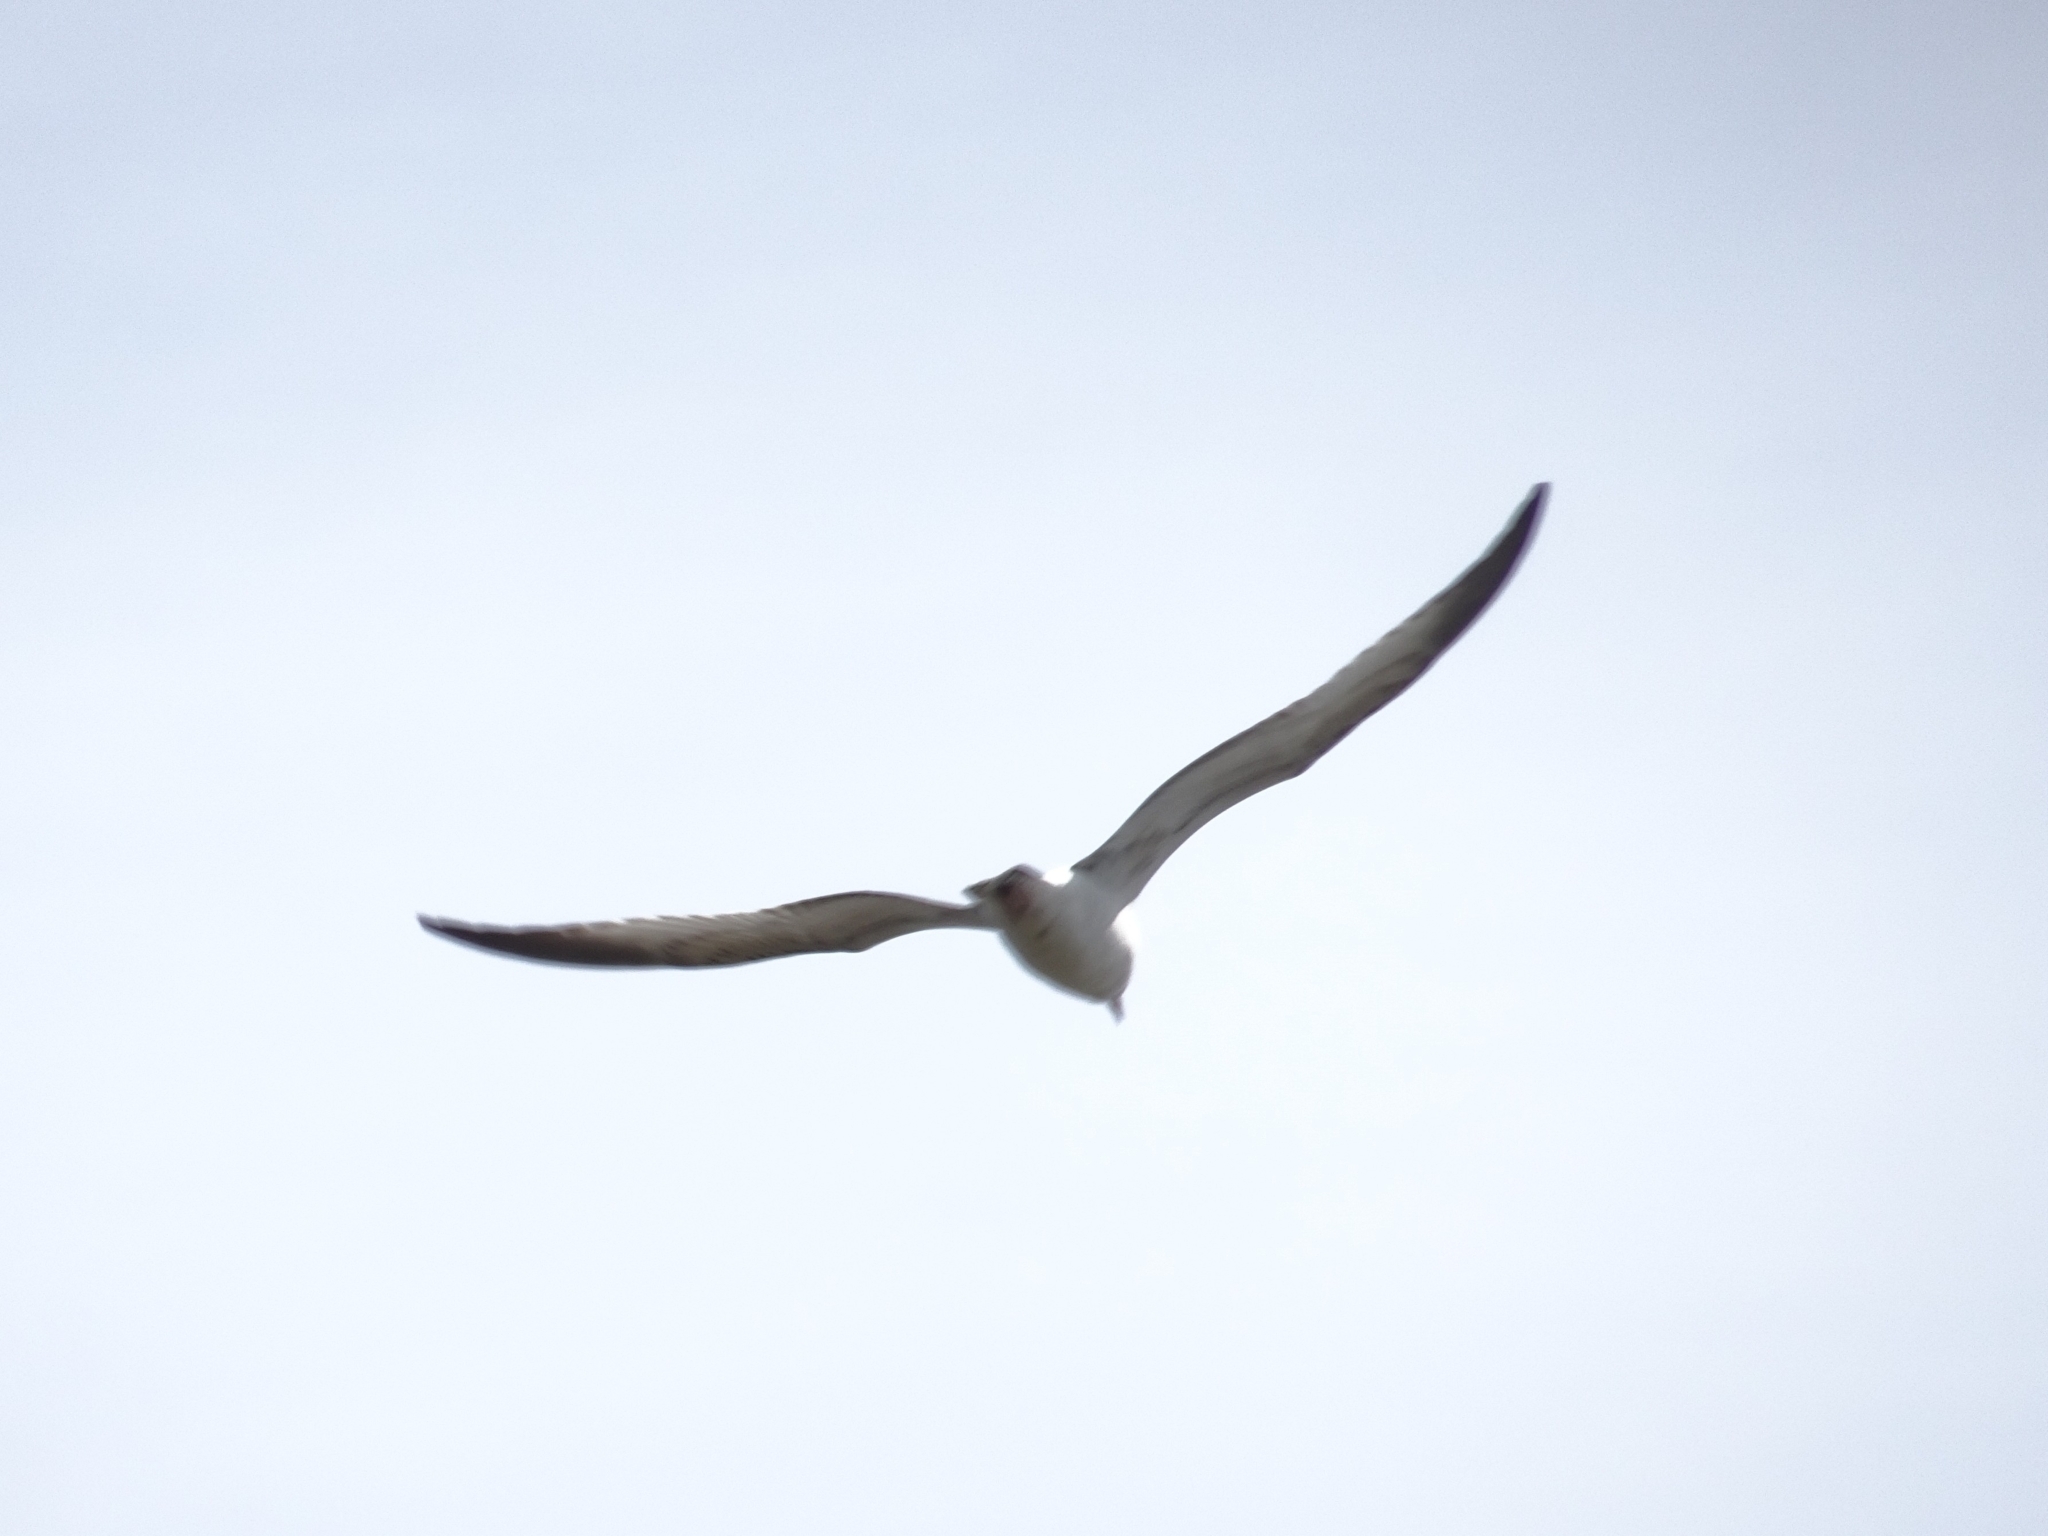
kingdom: Animalia
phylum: Chordata
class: Aves
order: Charadriiformes
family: Laridae
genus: Larus
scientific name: Larus delawarensis
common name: Ring-billed gull
